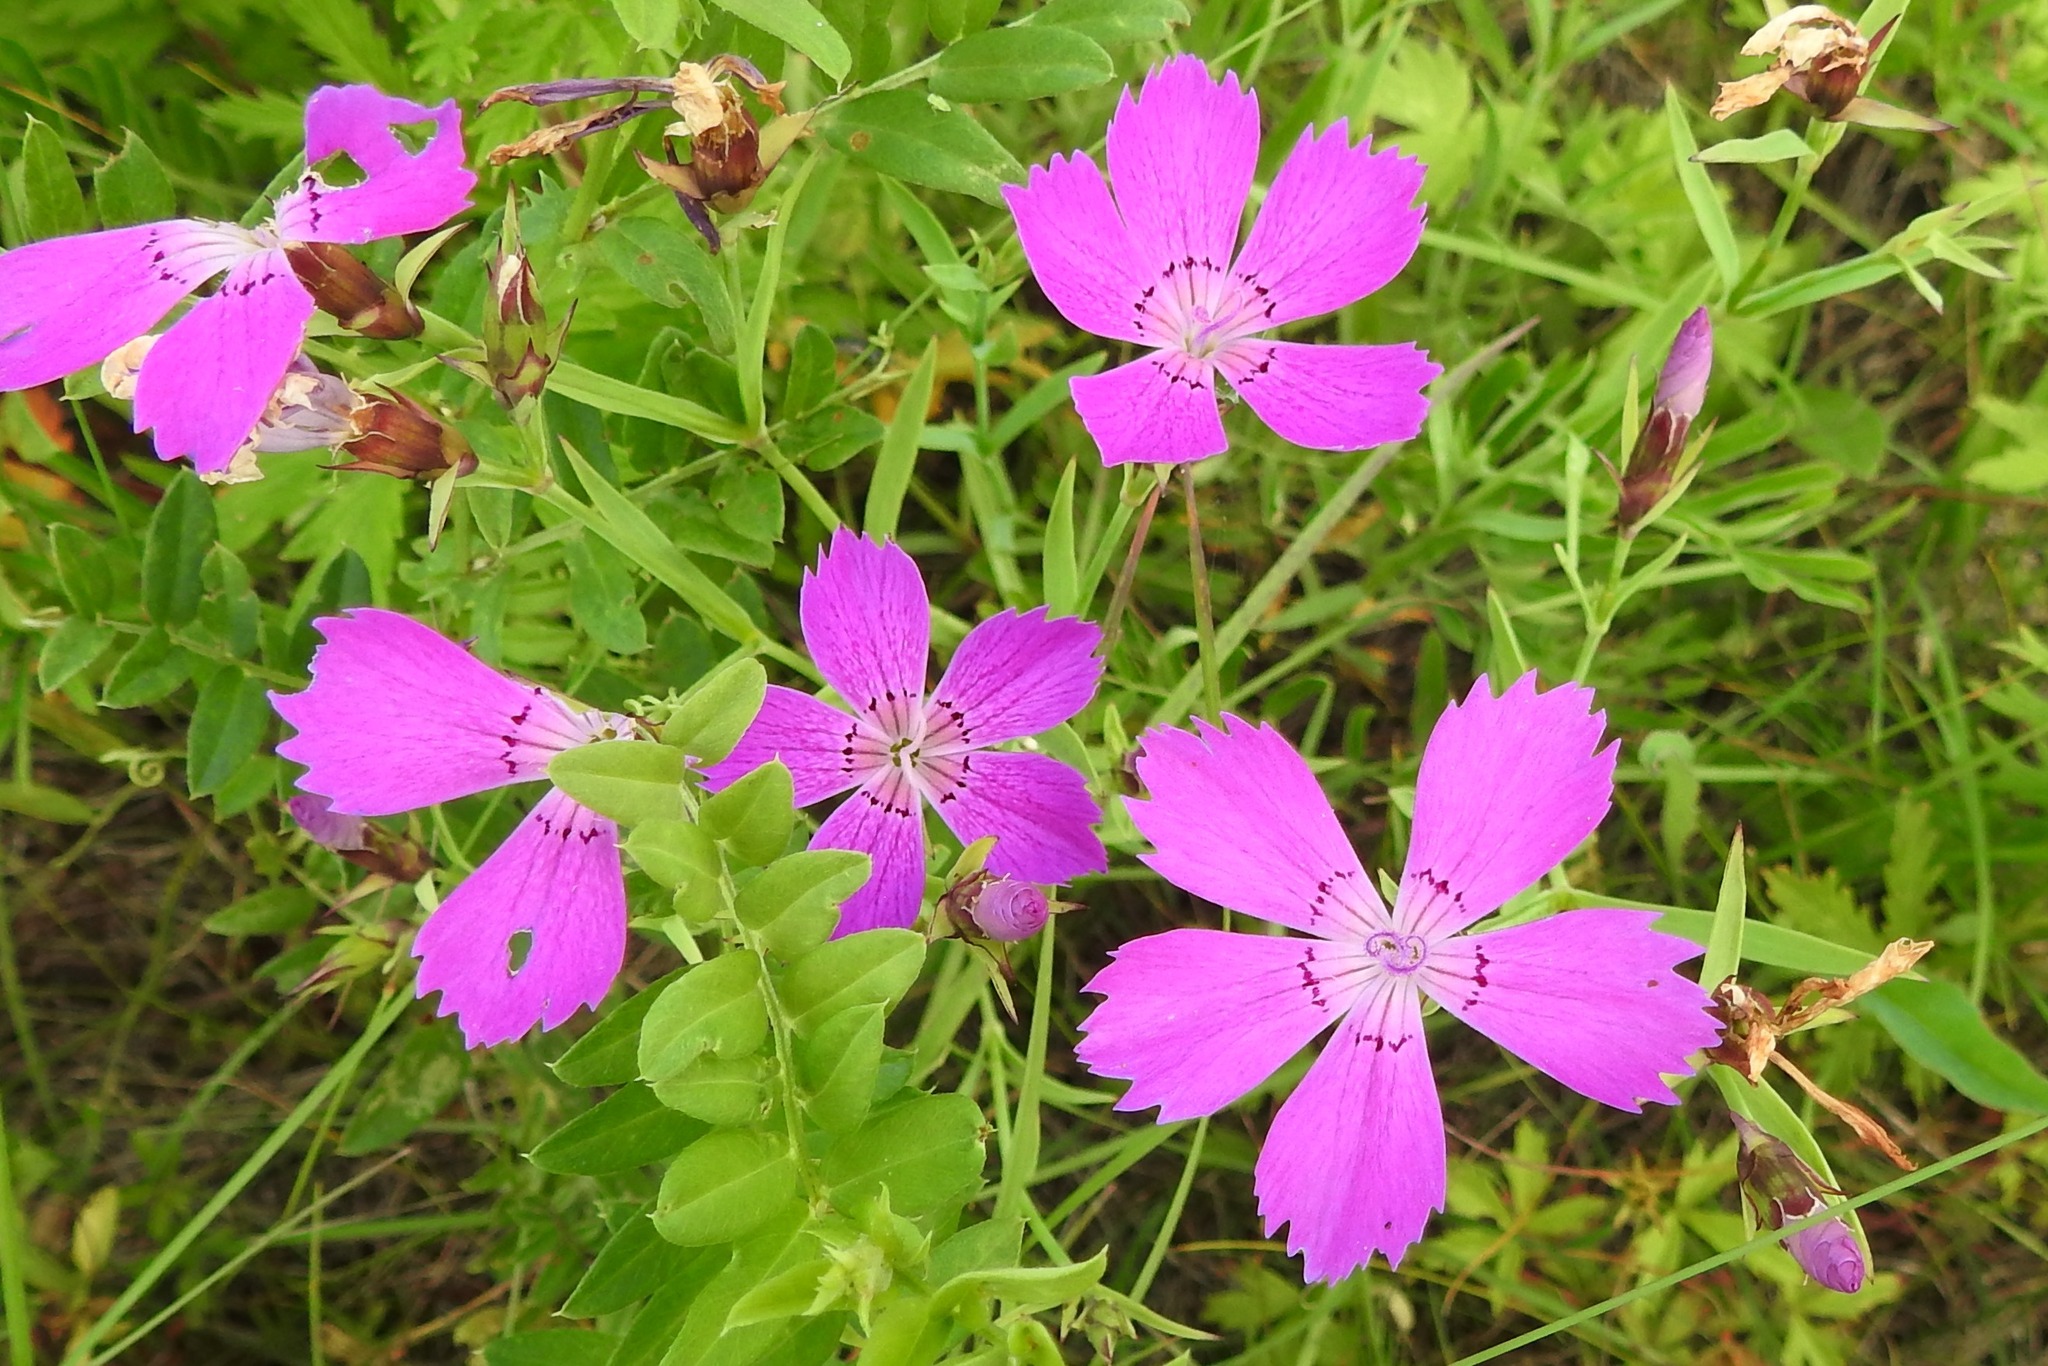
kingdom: Plantae
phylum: Tracheophyta
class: Magnoliopsida
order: Caryophyllales
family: Caryophyllaceae
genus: Dianthus
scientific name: Dianthus chinensis
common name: Rainbow pink
